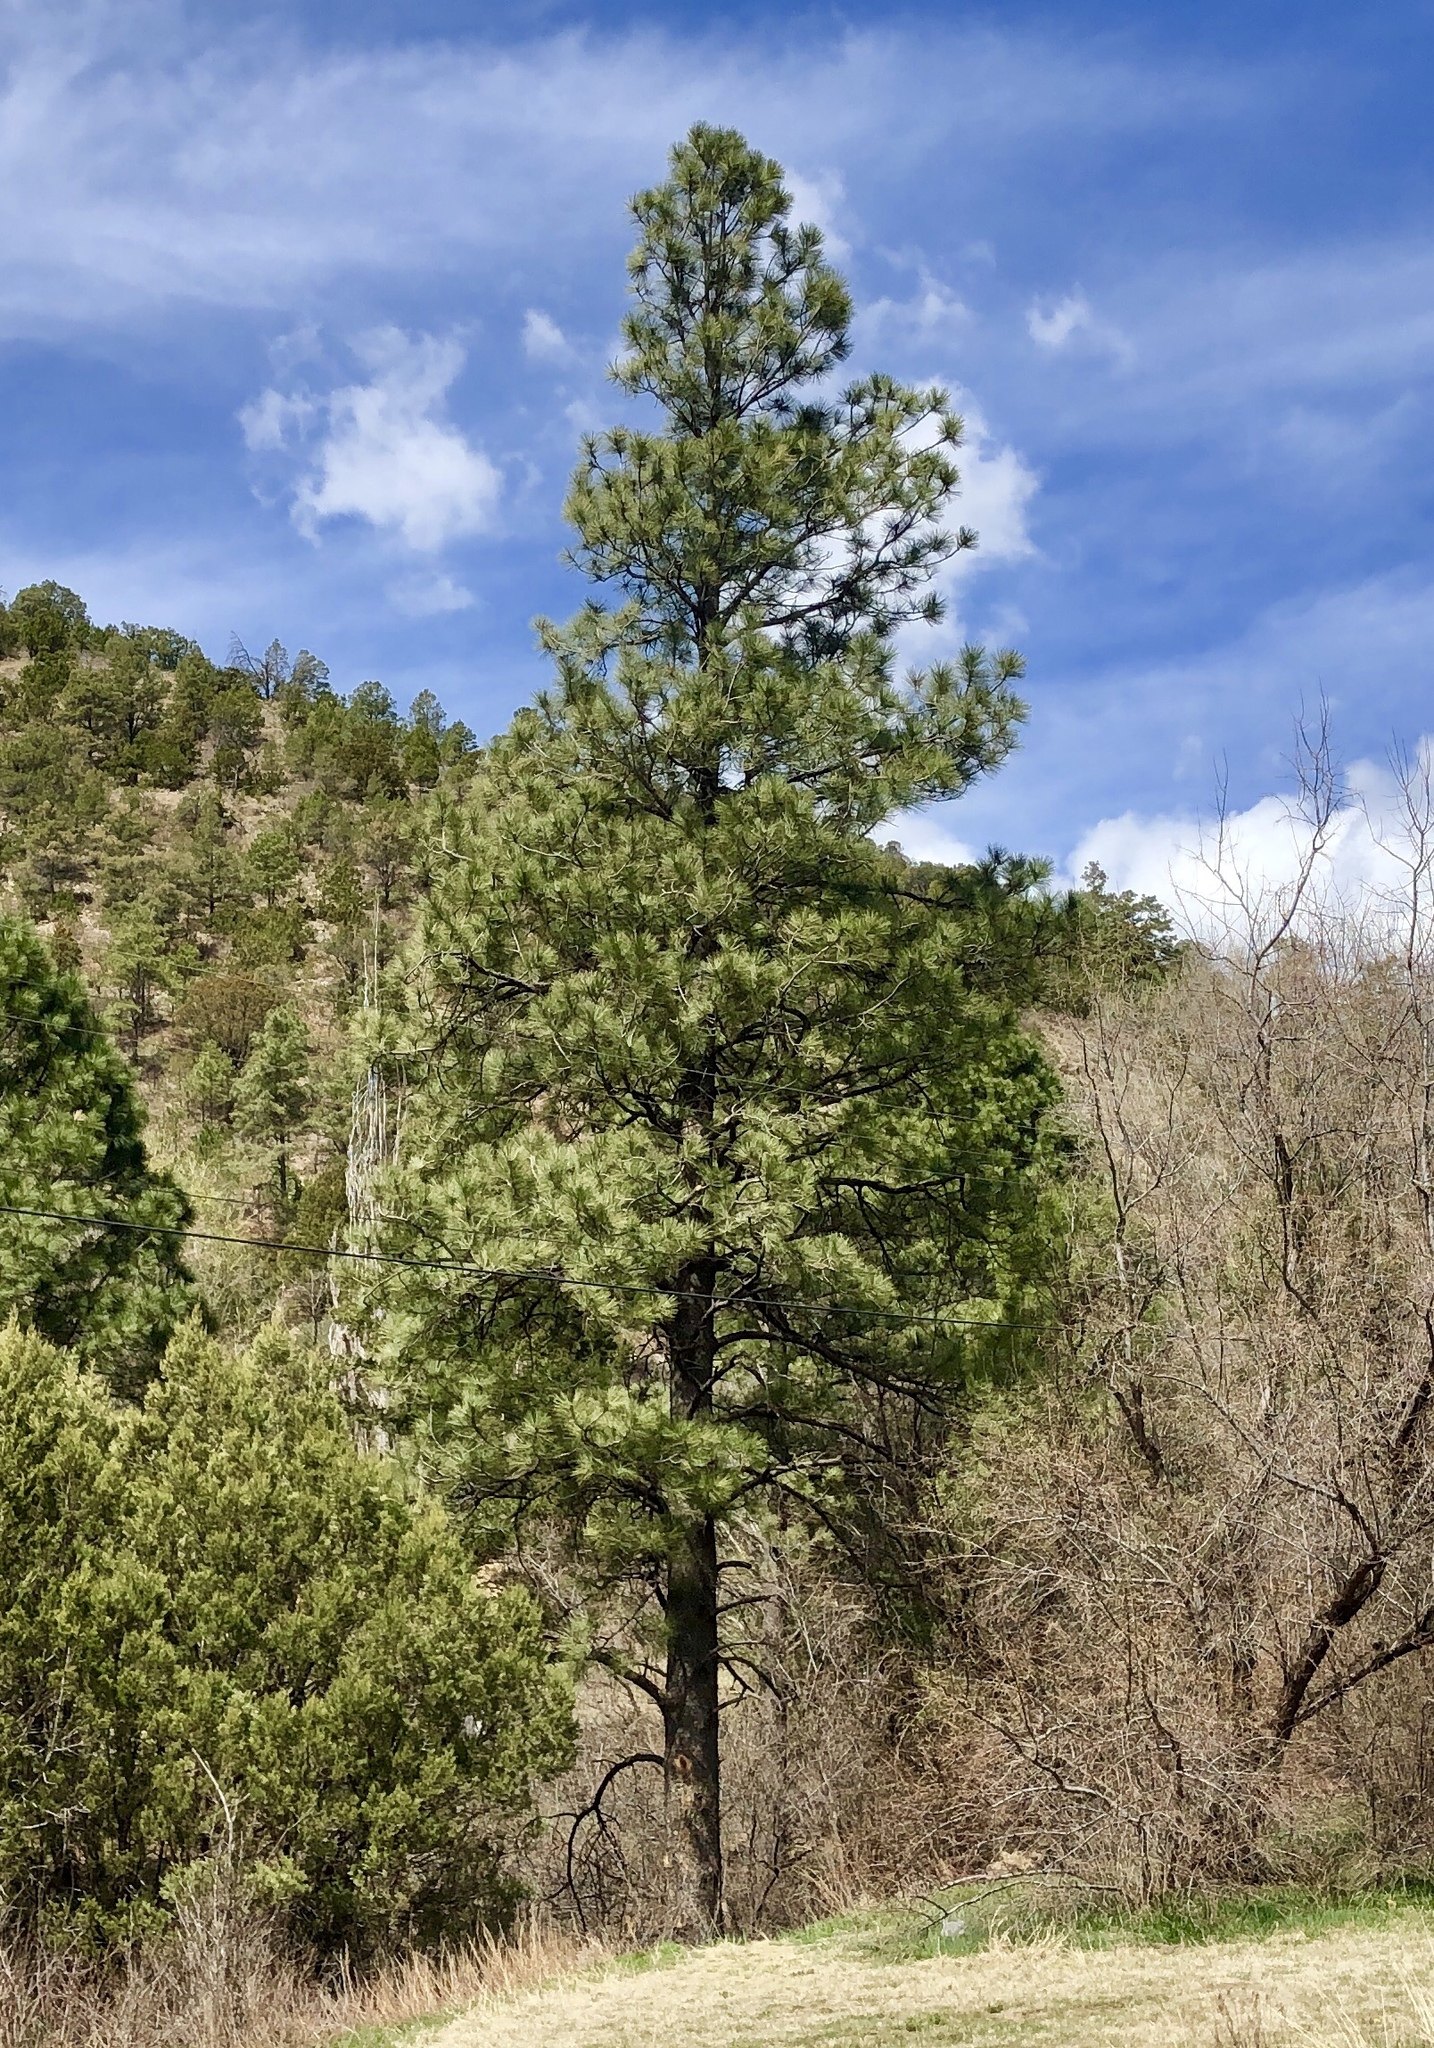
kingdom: Plantae
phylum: Tracheophyta
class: Pinopsida
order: Pinales
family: Pinaceae
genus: Pinus
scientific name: Pinus ponderosa
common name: Western yellow-pine
